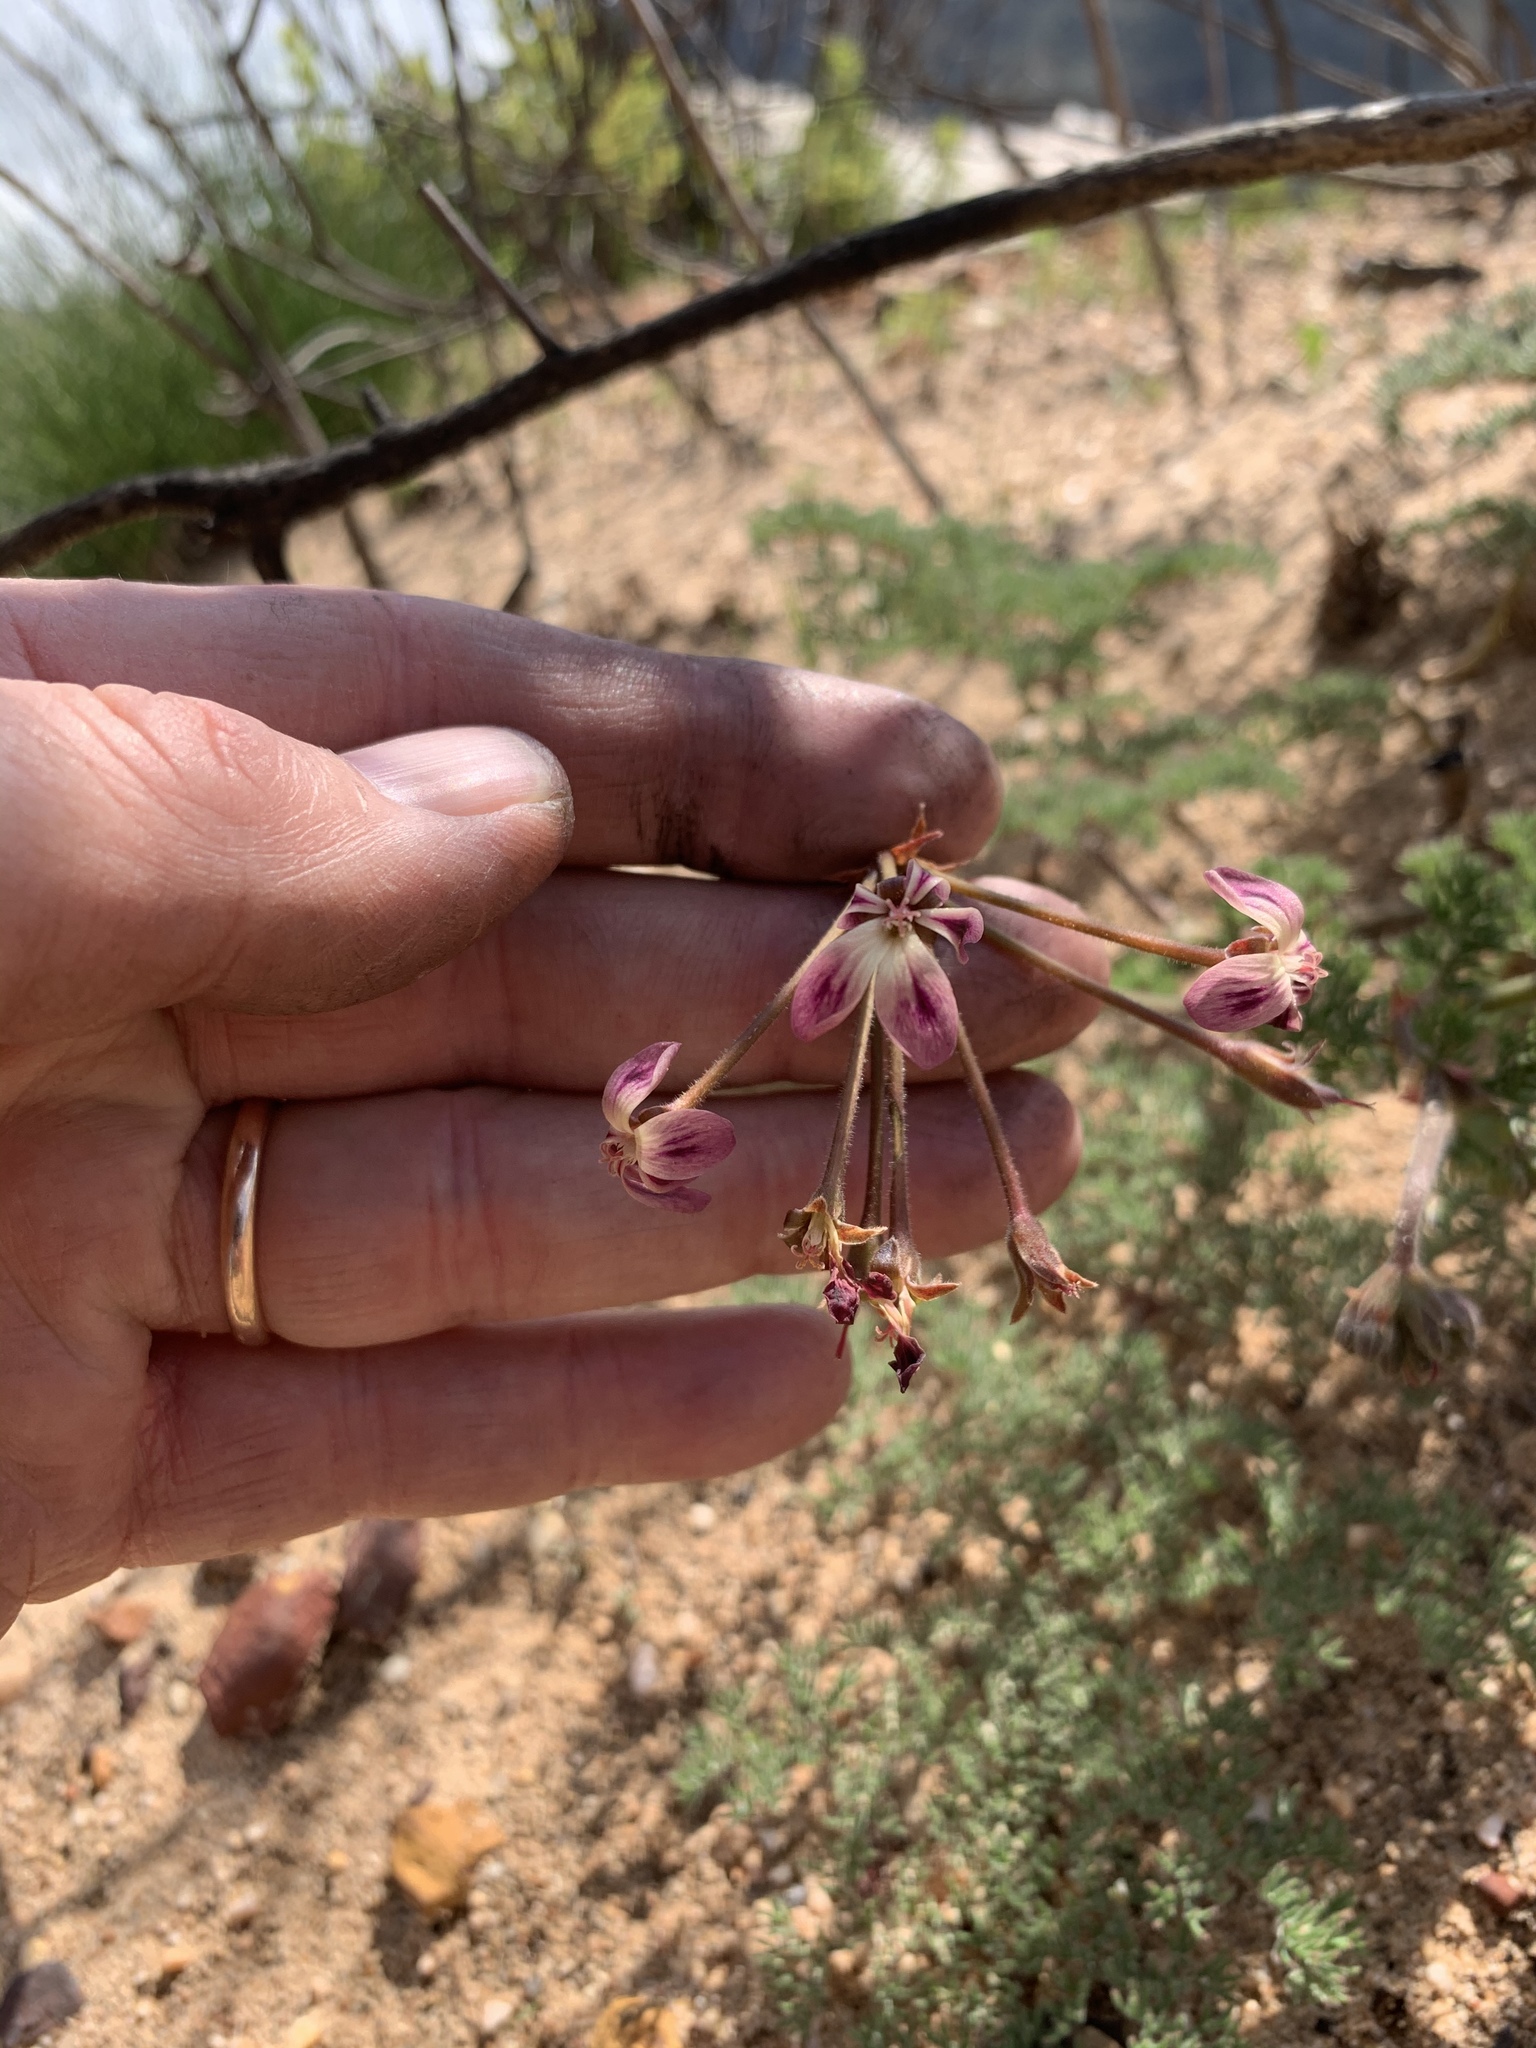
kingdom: Plantae
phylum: Tracheophyta
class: Magnoliopsida
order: Geraniales
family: Geraniaceae
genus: Pelargonium
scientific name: Pelargonium triste
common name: Night-scent pelargonium
